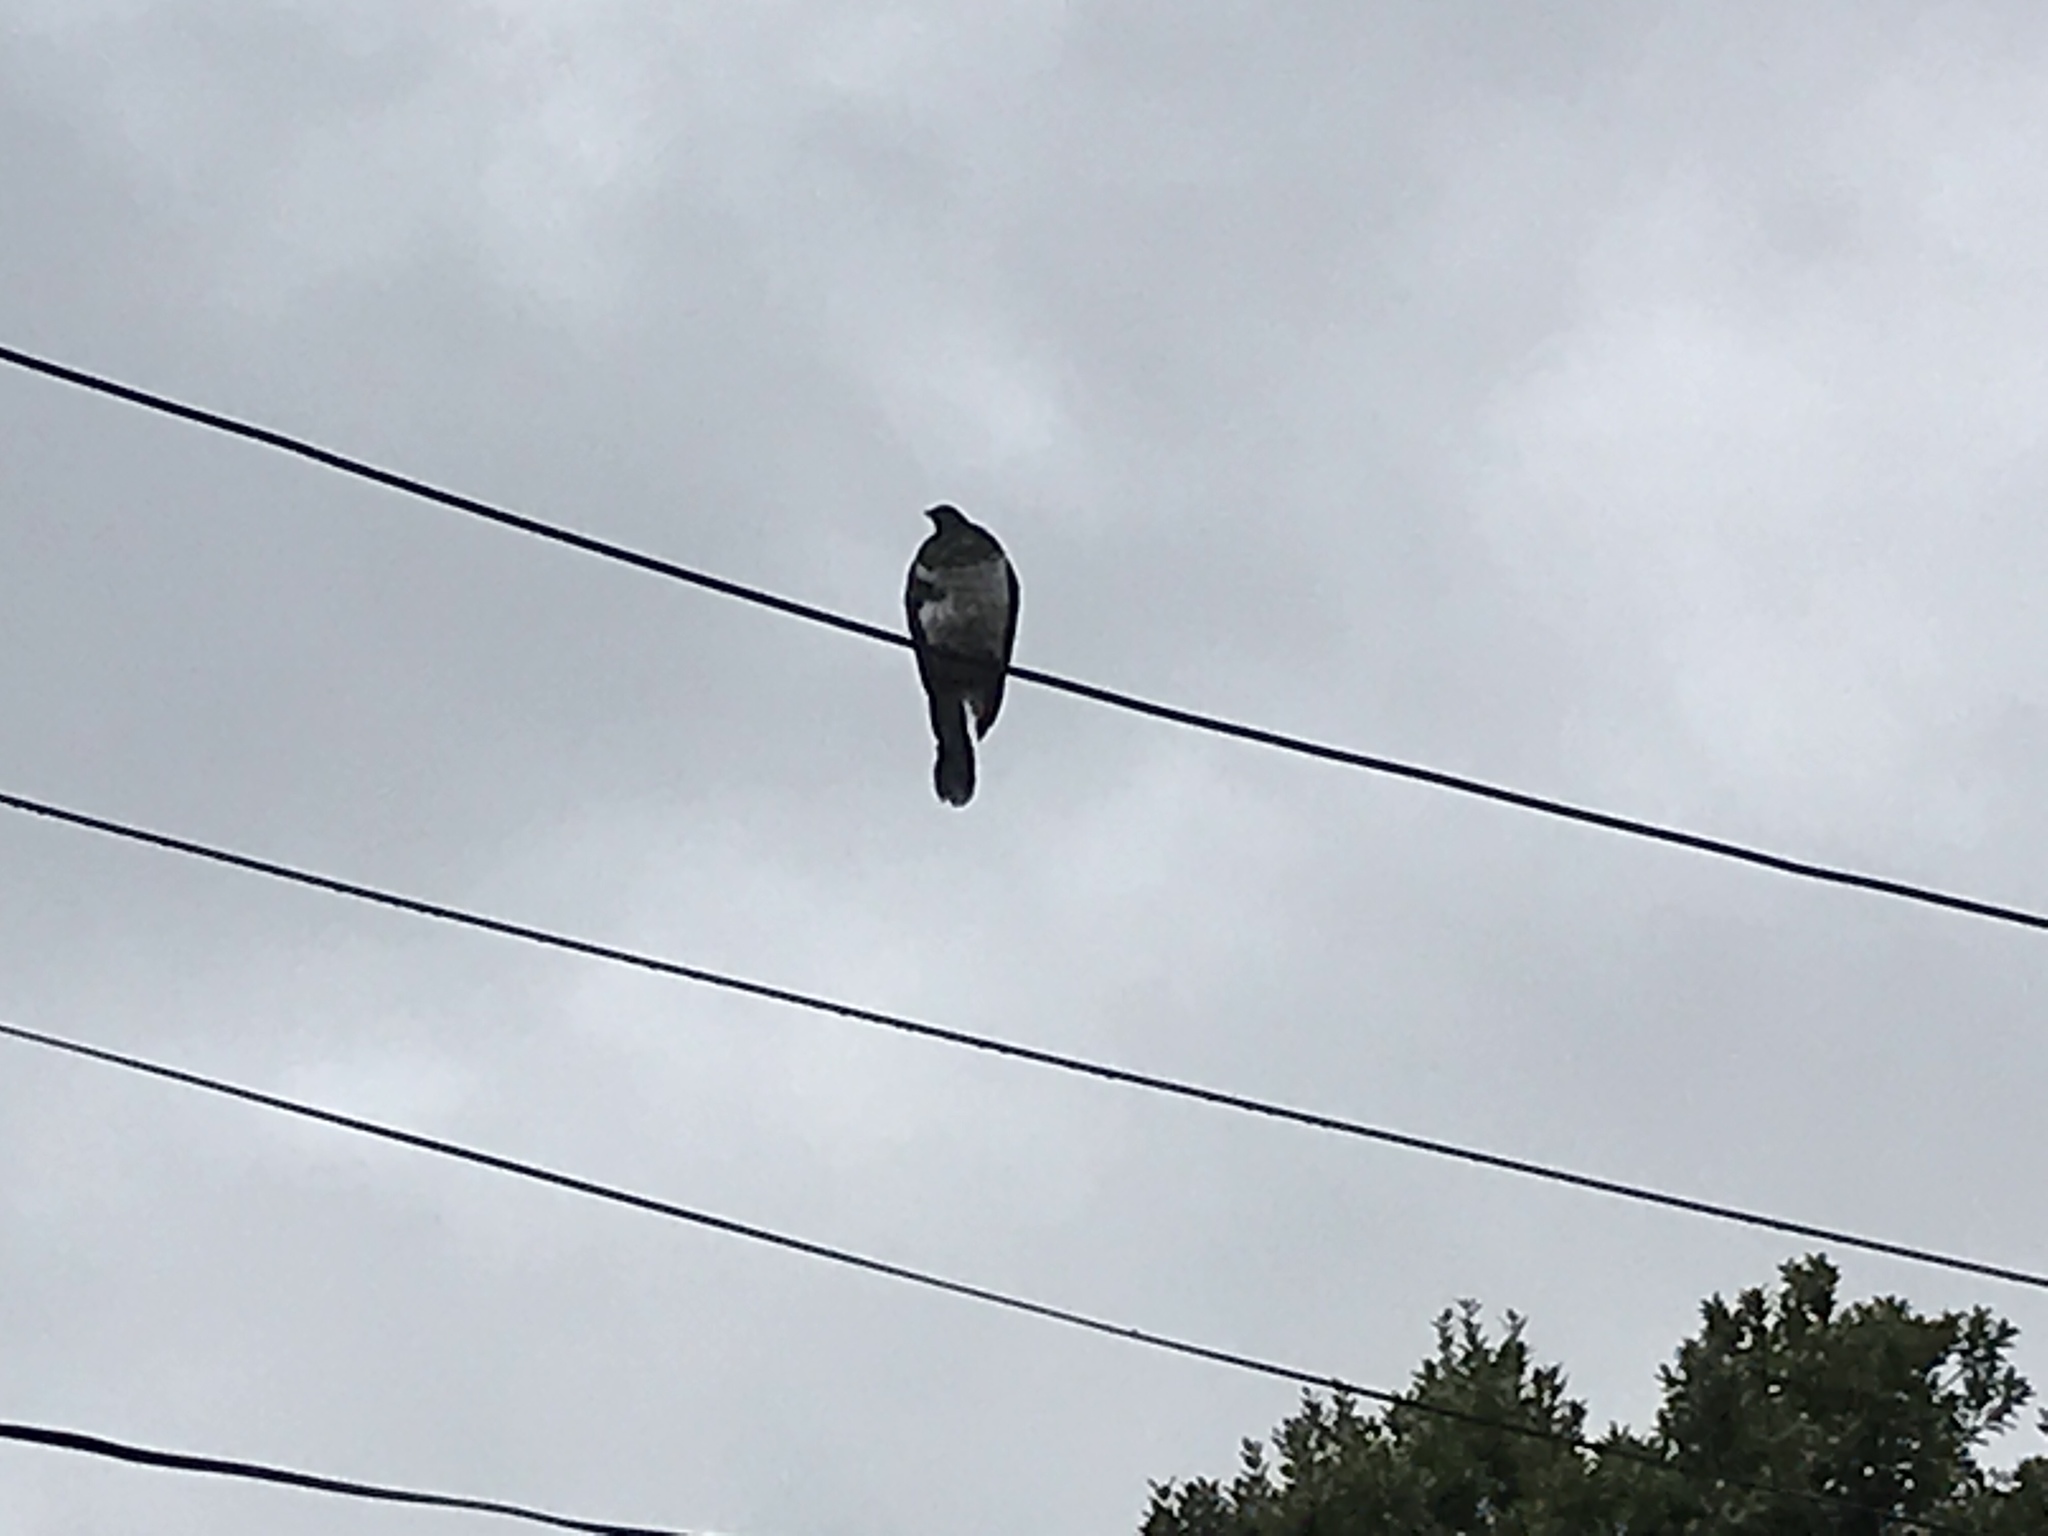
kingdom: Animalia
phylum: Chordata
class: Aves
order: Columbiformes
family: Columbidae
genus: Hemiphaga
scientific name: Hemiphaga novaeseelandiae
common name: New zealand pigeon
